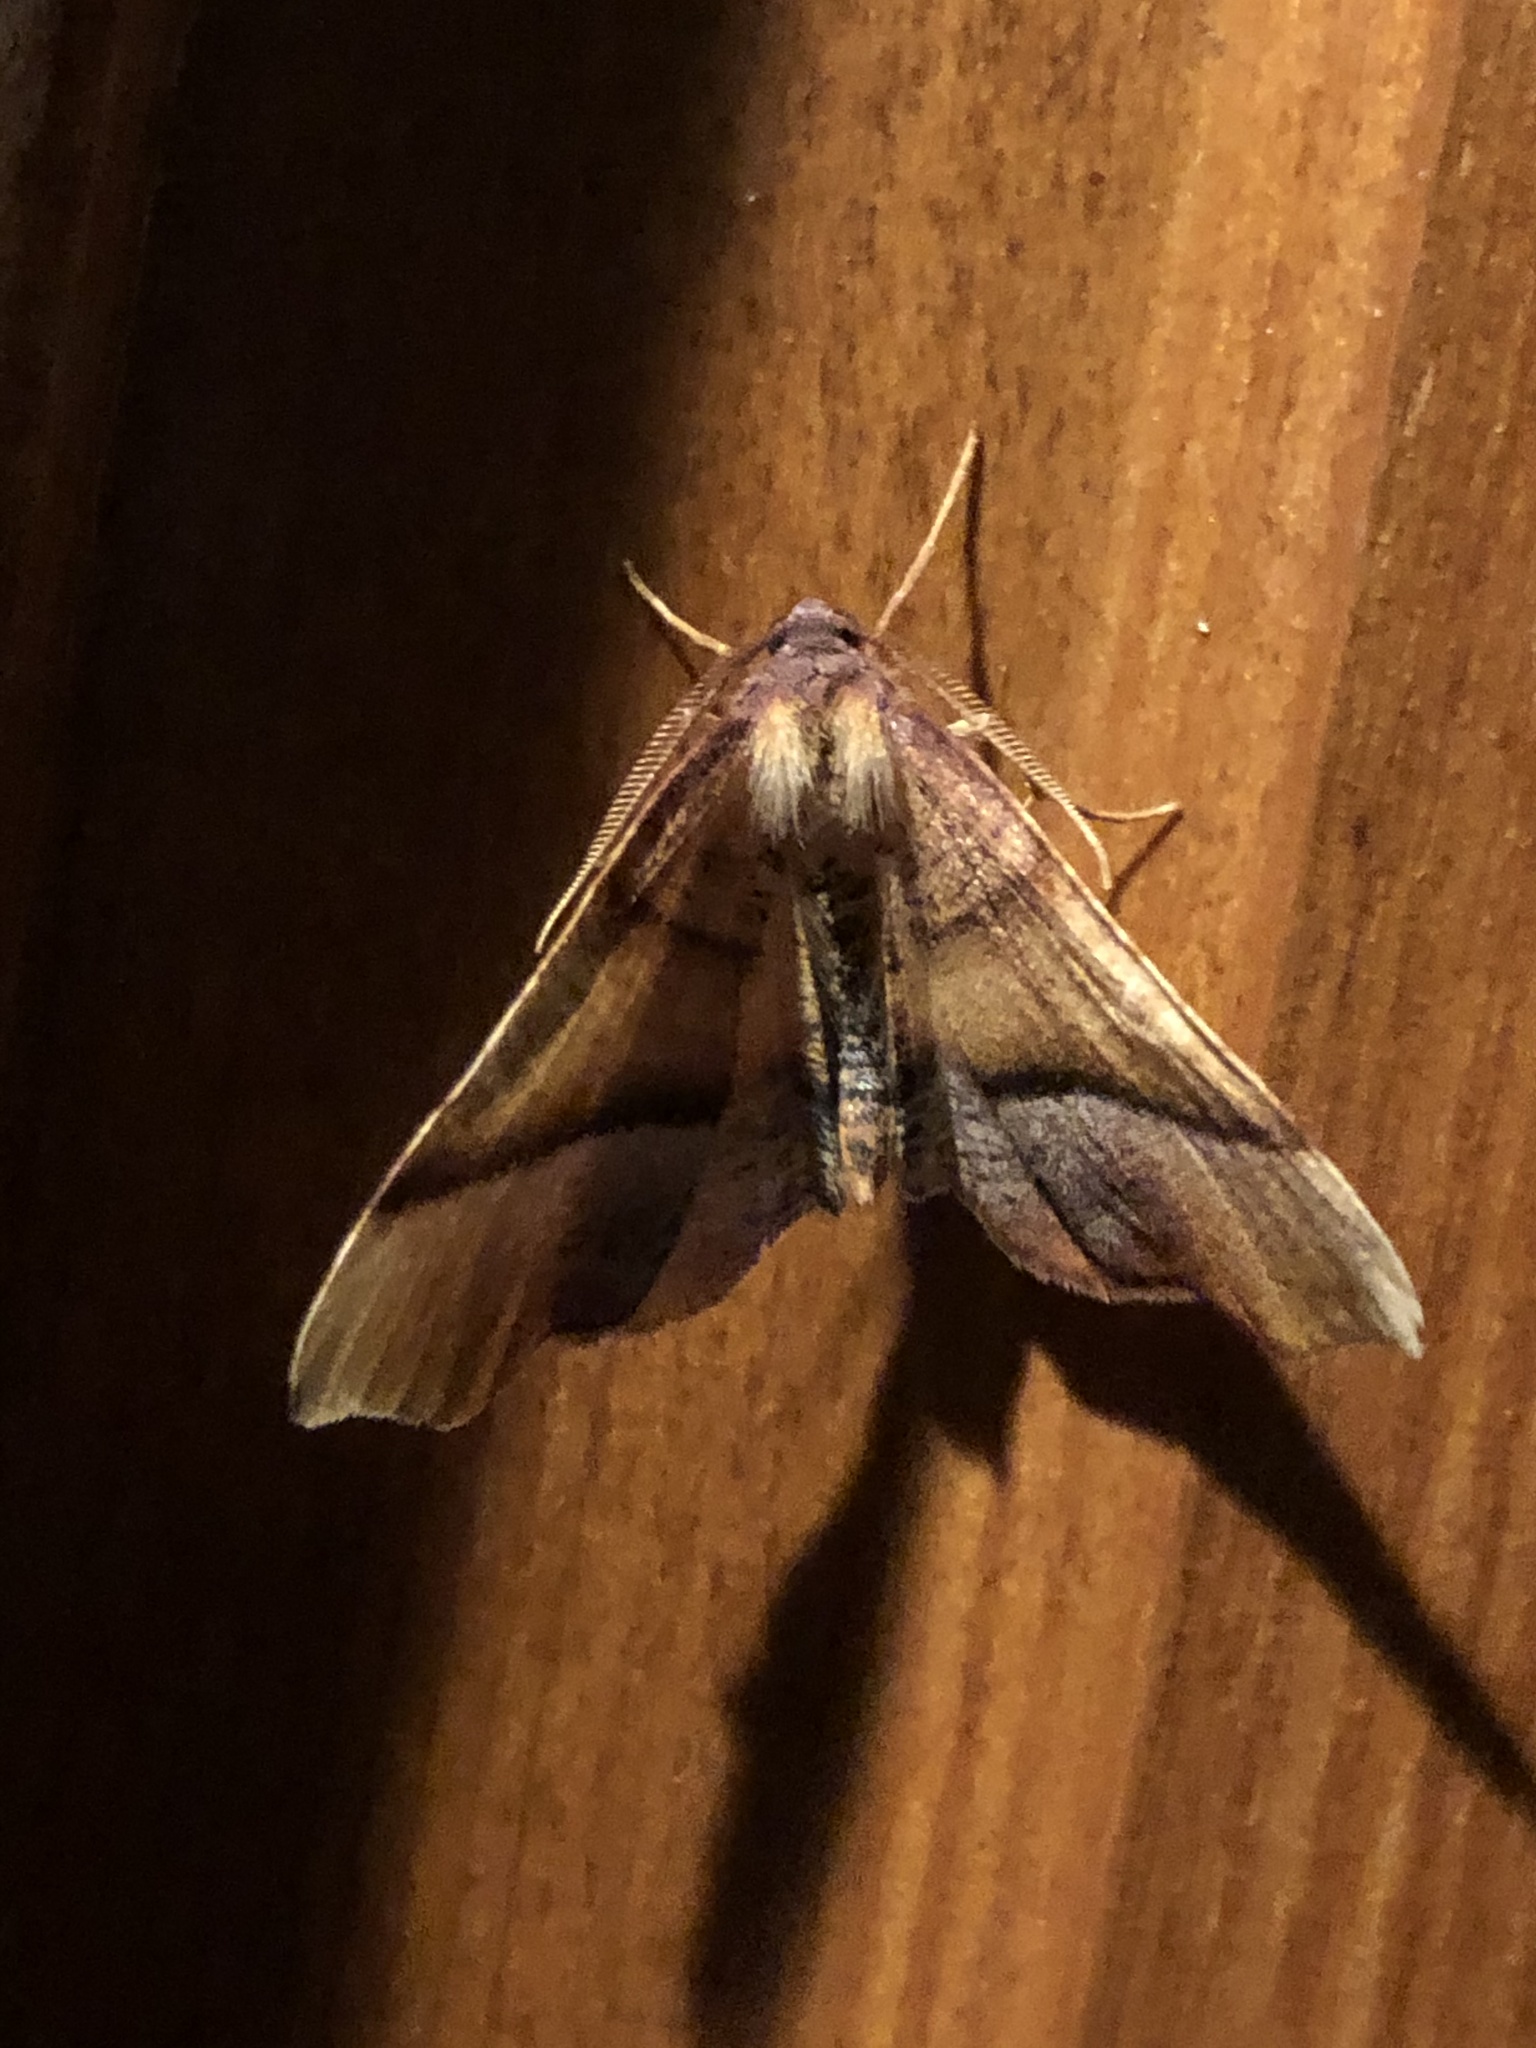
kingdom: Animalia
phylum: Arthropoda
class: Insecta
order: Lepidoptera
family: Geometridae
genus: Plagodis
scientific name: Plagodis phlogosaria
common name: Straight-lined plagodis
